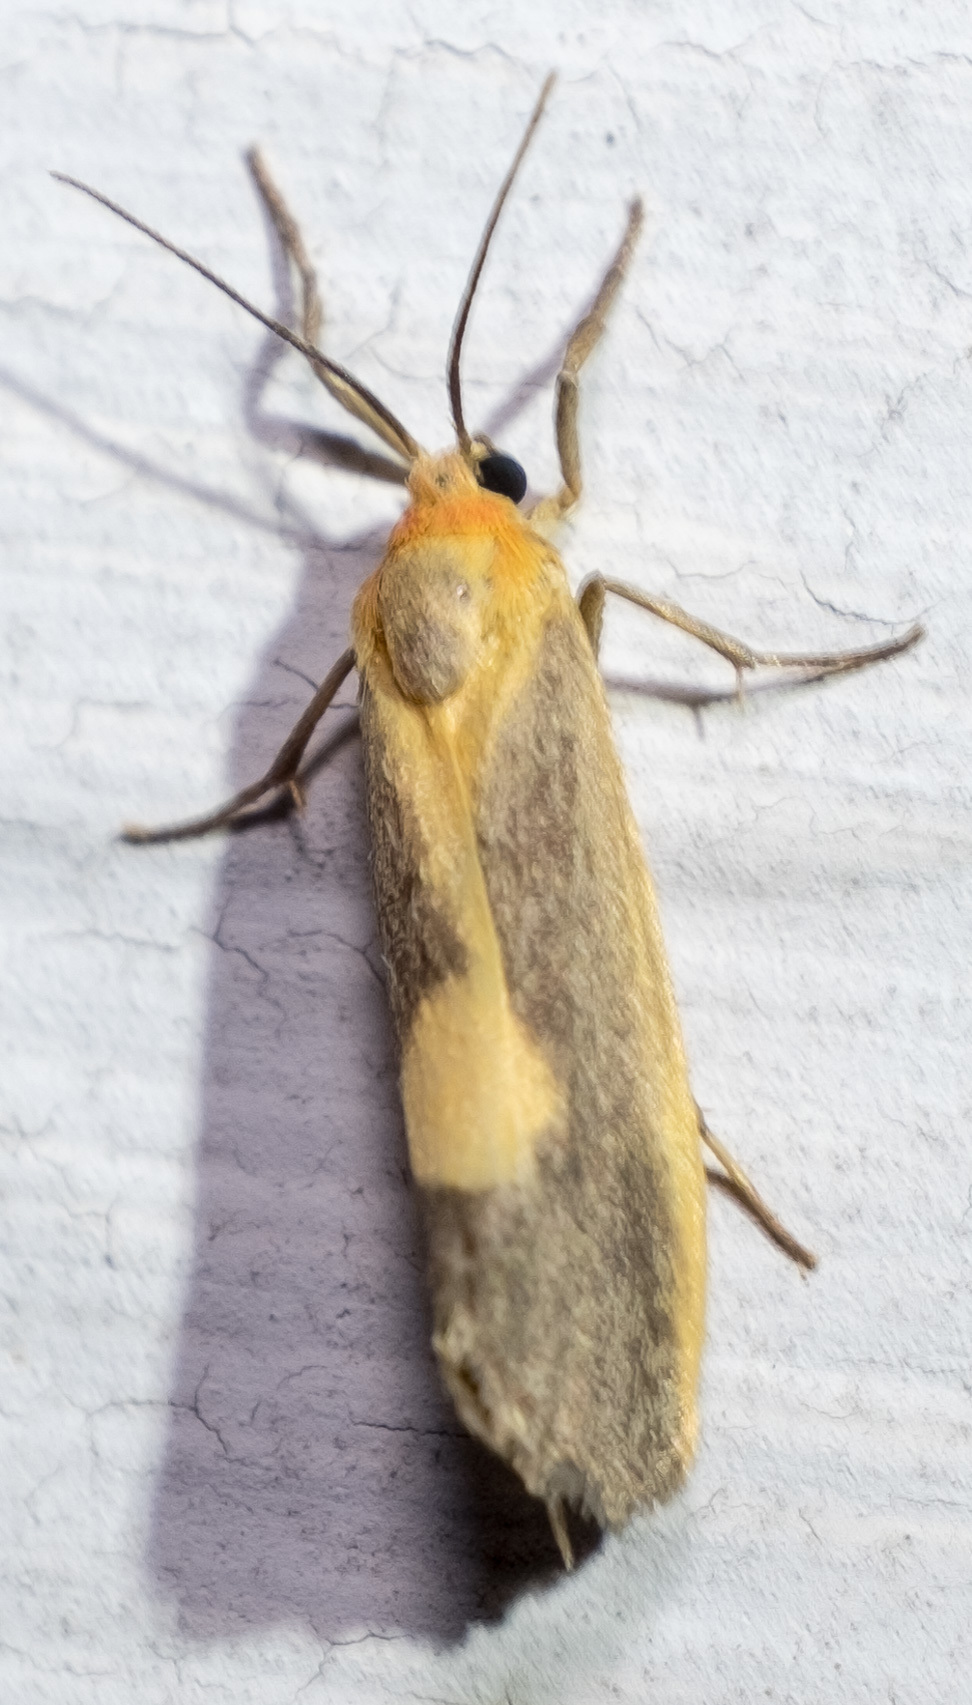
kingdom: Animalia
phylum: Arthropoda
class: Insecta
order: Lepidoptera
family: Erebidae
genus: Cisthene
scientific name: Cisthene plumbea
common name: Lead colored lichen moth
